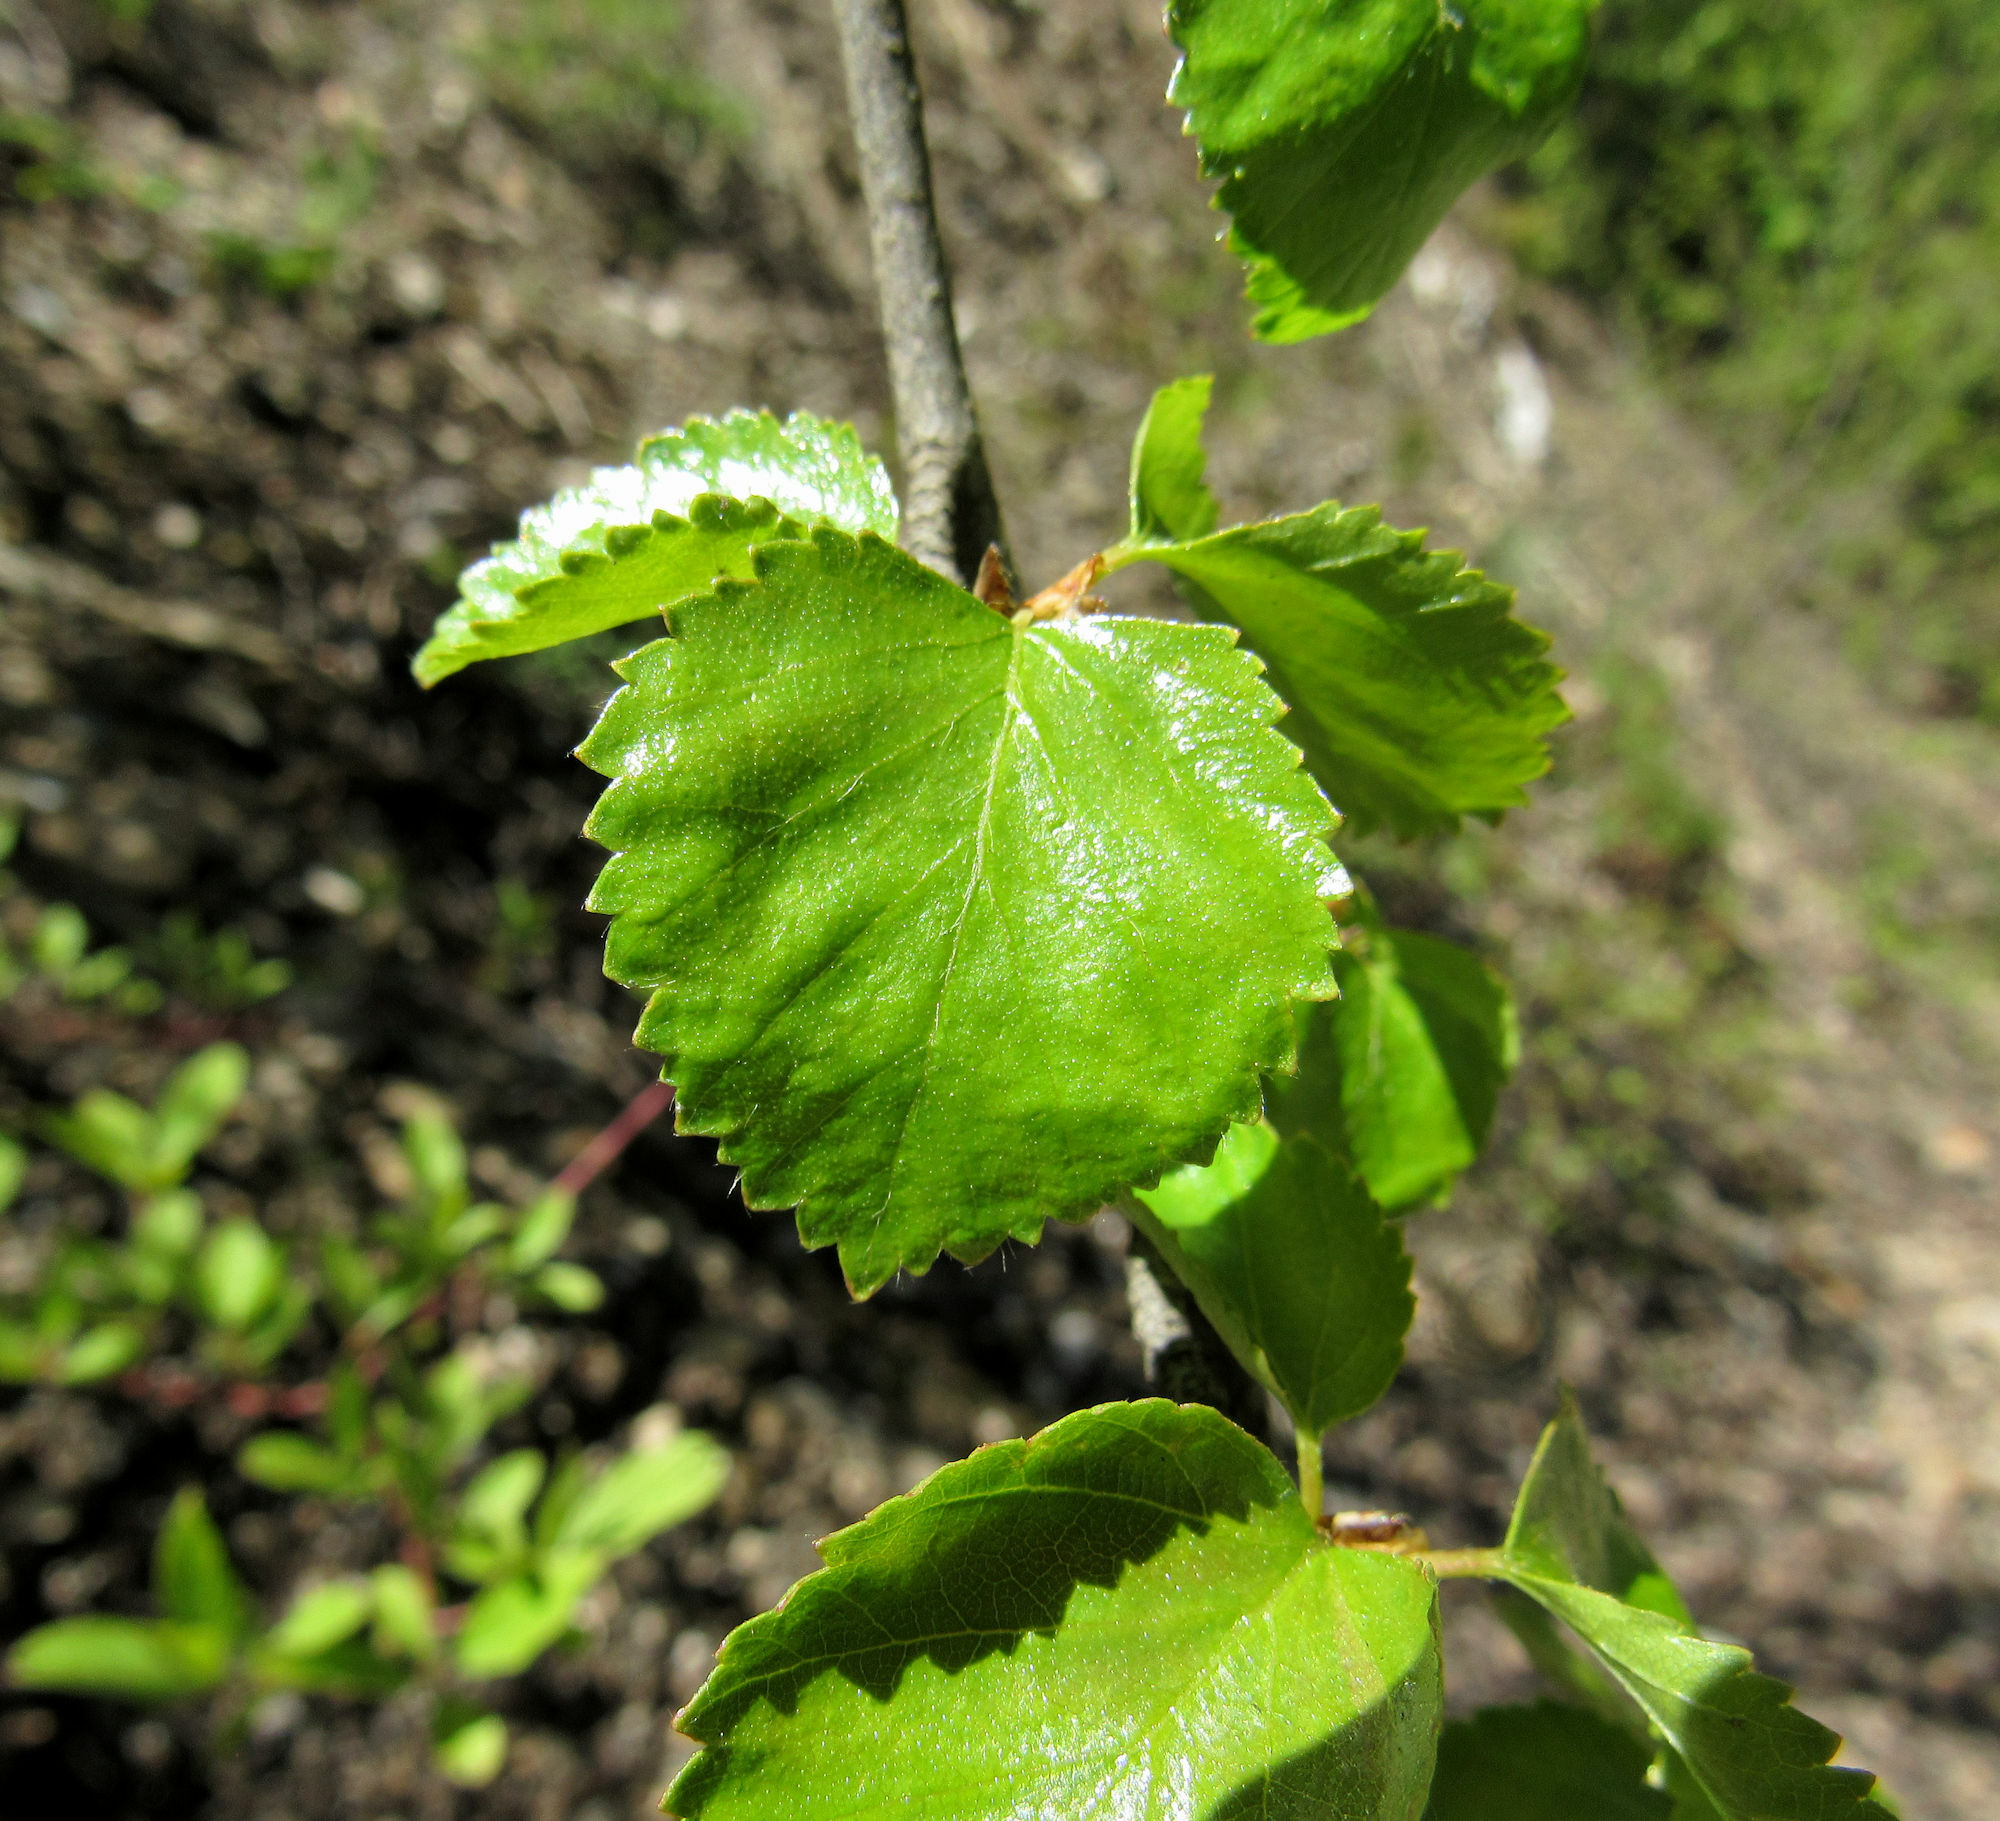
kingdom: Plantae
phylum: Tracheophyta
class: Magnoliopsida
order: Fagales
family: Betulaceae
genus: Betula
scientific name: Betula occidentalis
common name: River birch
